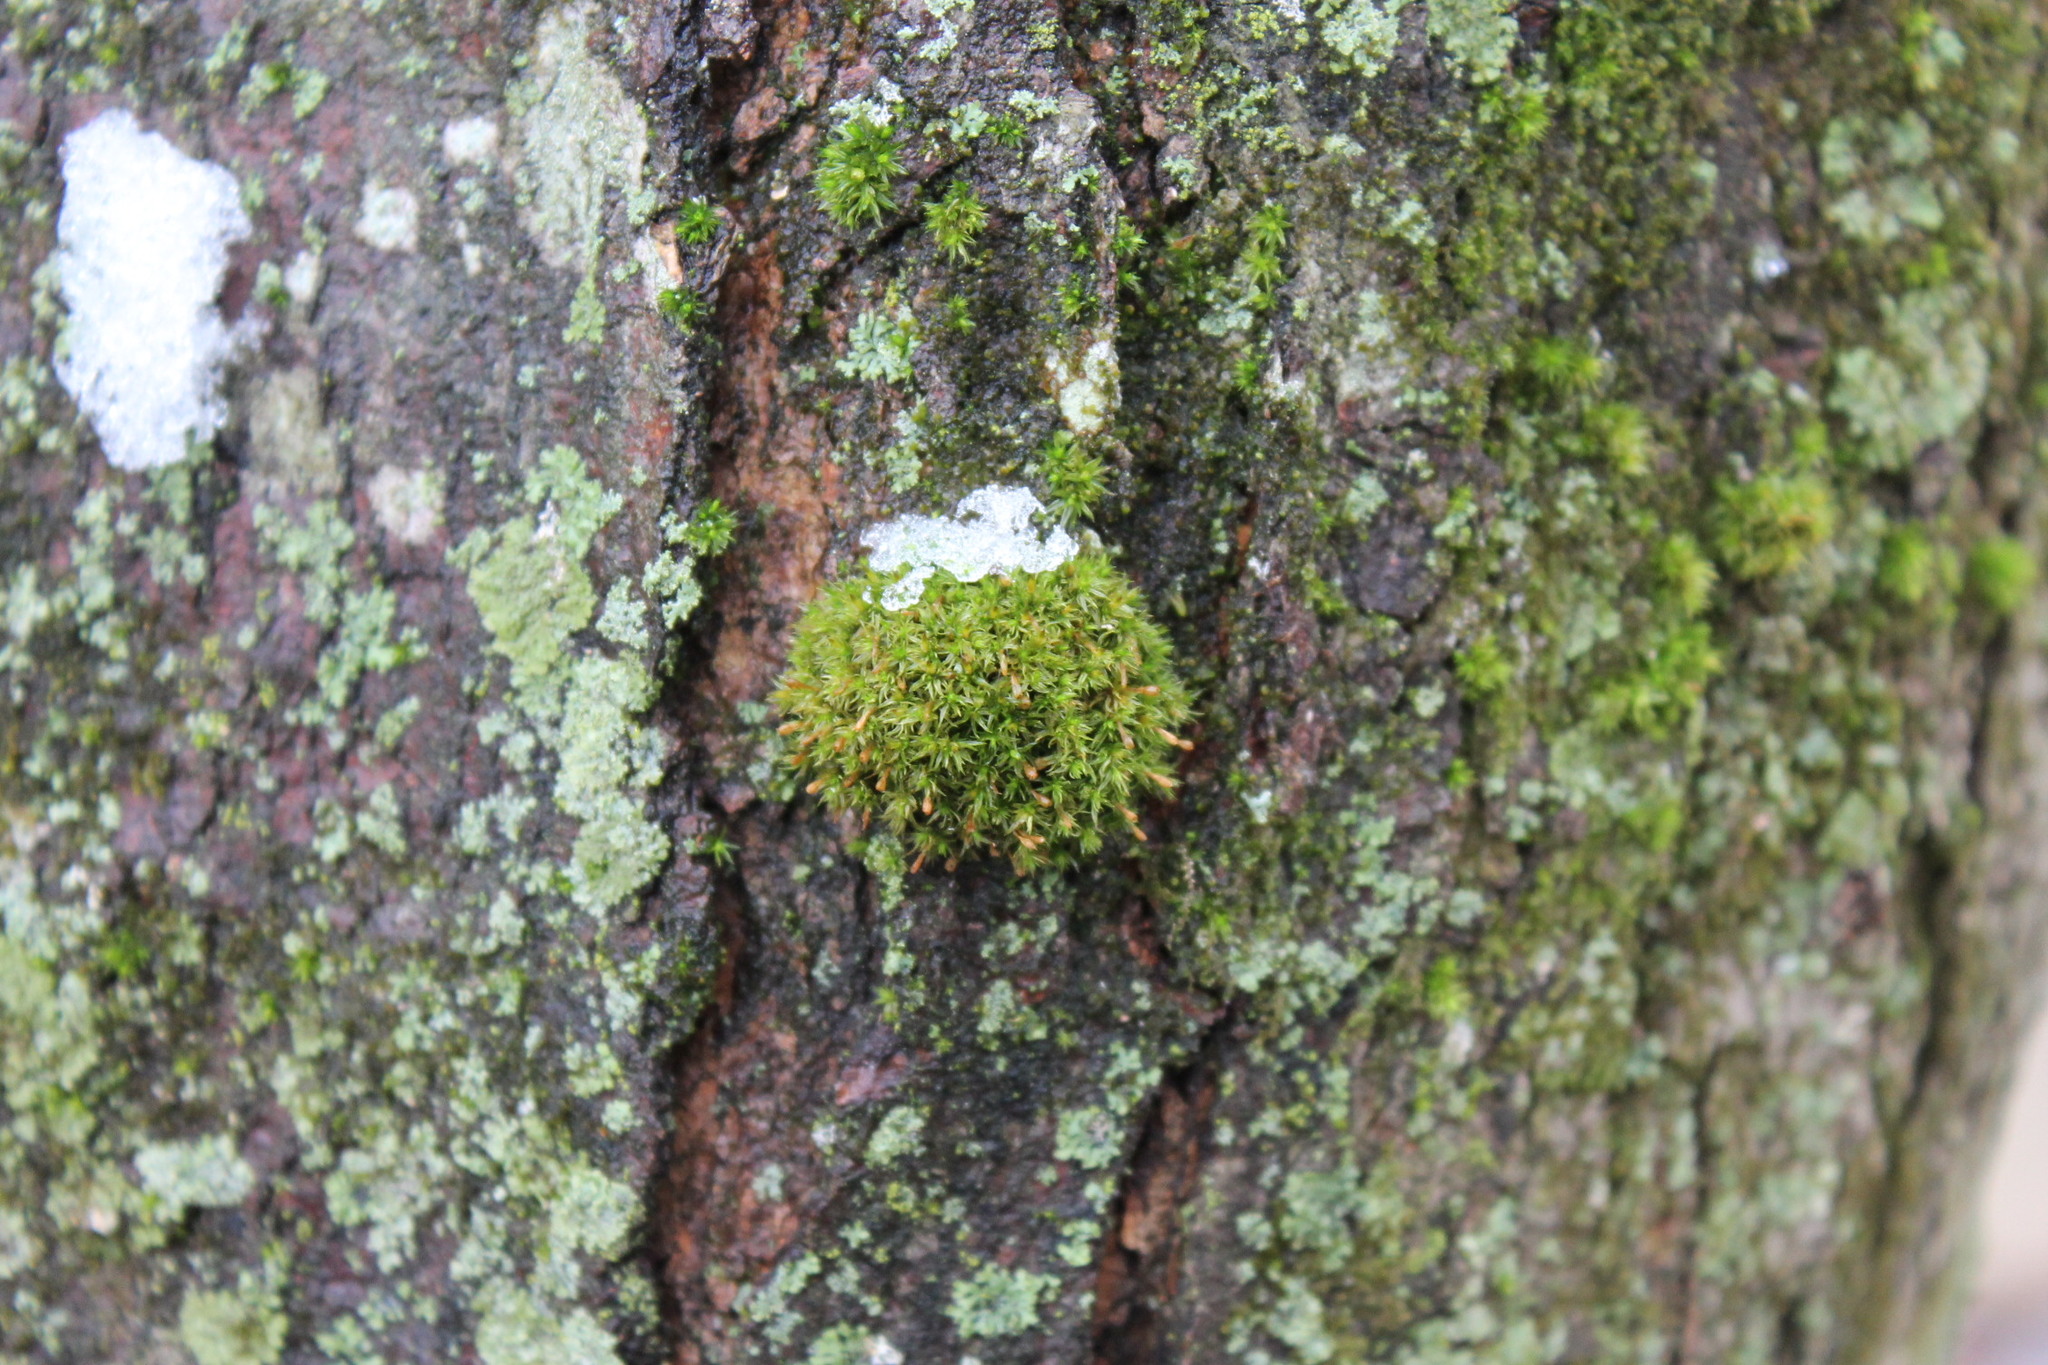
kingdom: Plantae
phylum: Bryophyta
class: Bryopsida
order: Orthotrichales
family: Orthotrichaceae
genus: Ulota
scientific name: Ulota crispa
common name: Crisped pincushion moss
